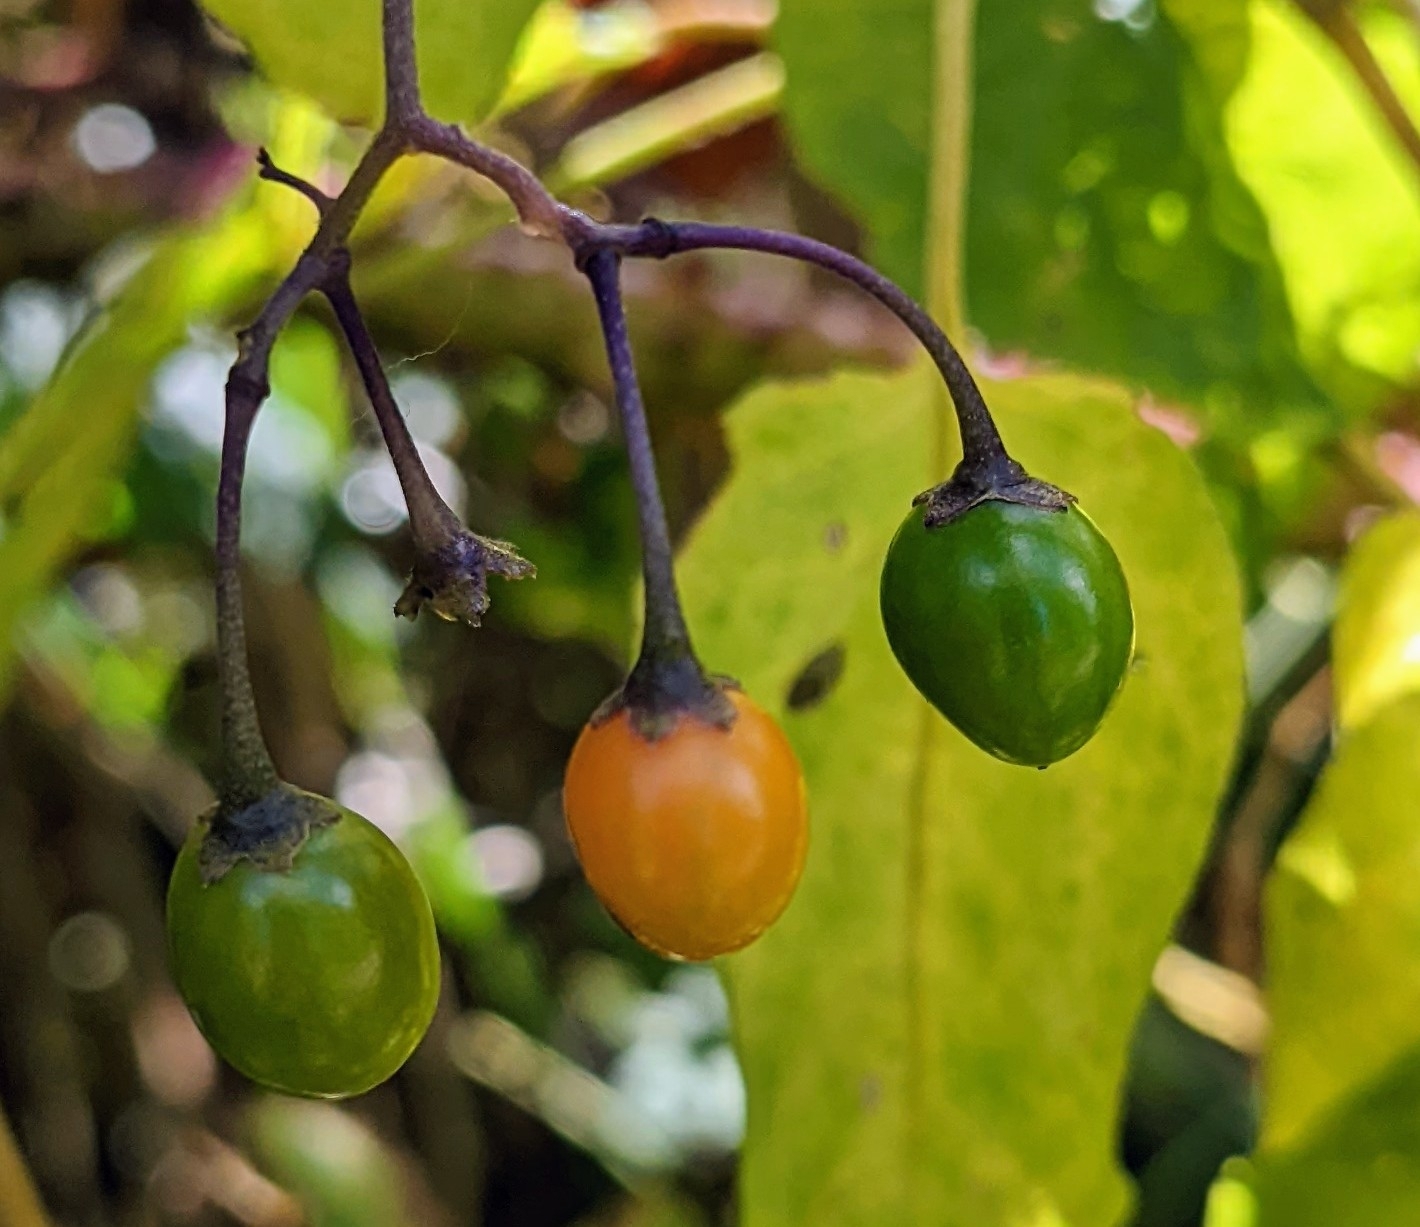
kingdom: Plantae
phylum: Tracheophyta
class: Magnoliopsida
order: Solanales
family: Solanaceae
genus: Solanum
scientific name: Solanum dulcamara
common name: Climbing nightshade
